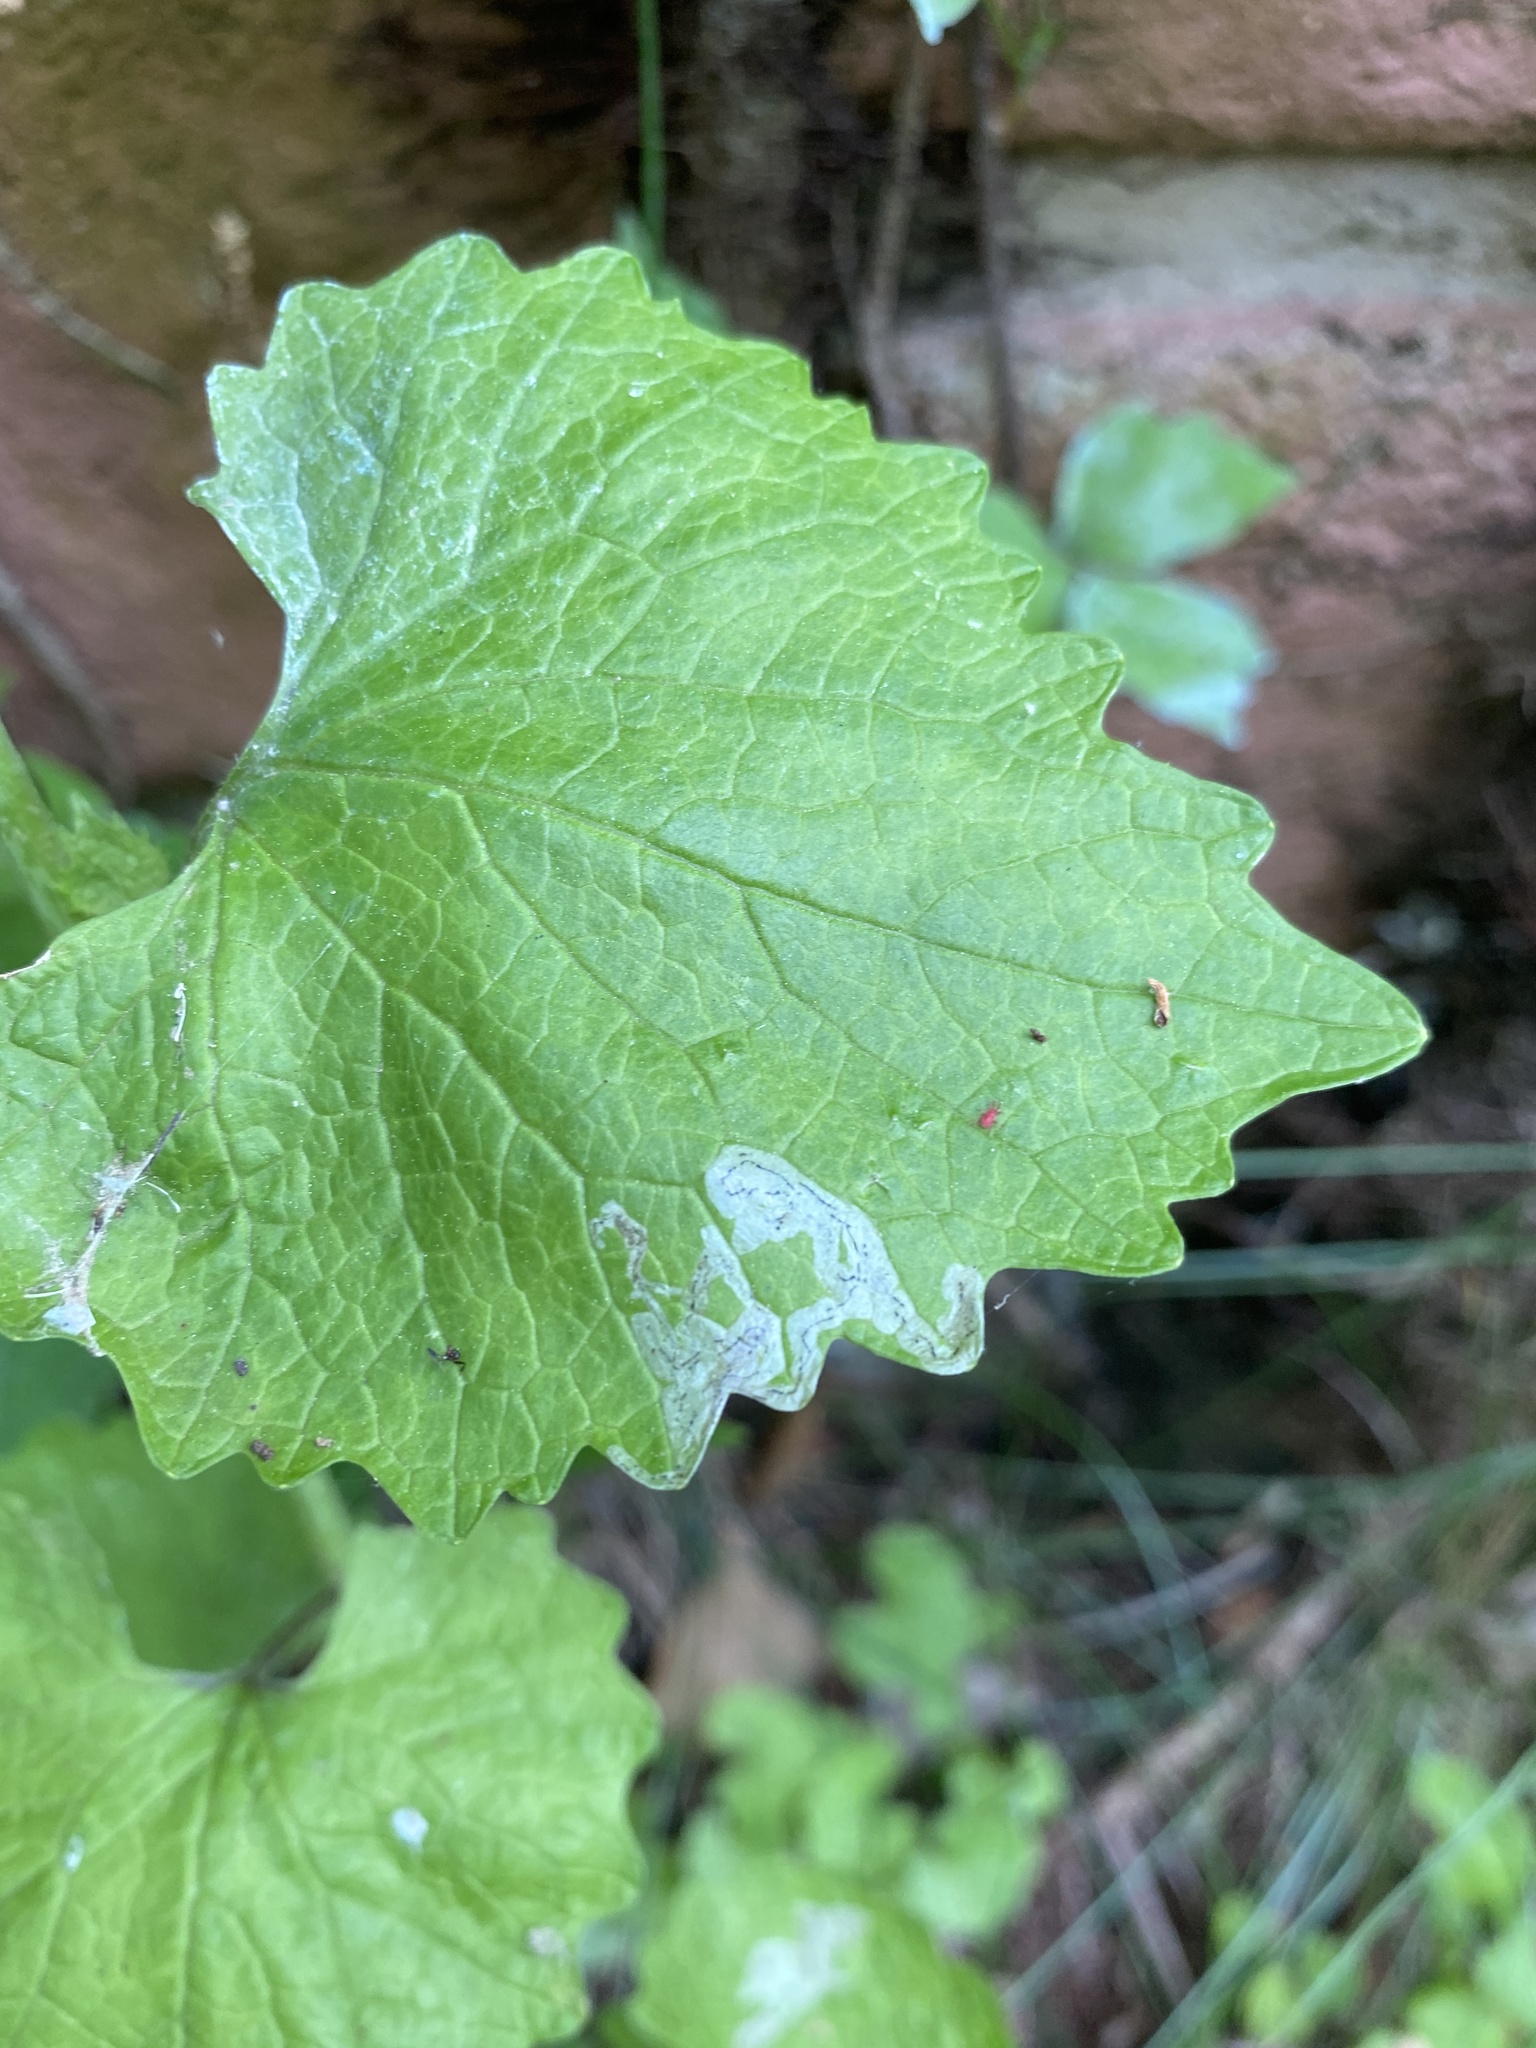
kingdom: Animalia
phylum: Arthropoda
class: Insecta
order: Diptera
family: Agromyzidae
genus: Liriomyza
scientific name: Liriomyza brassicae
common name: Serpentine leaf miner
